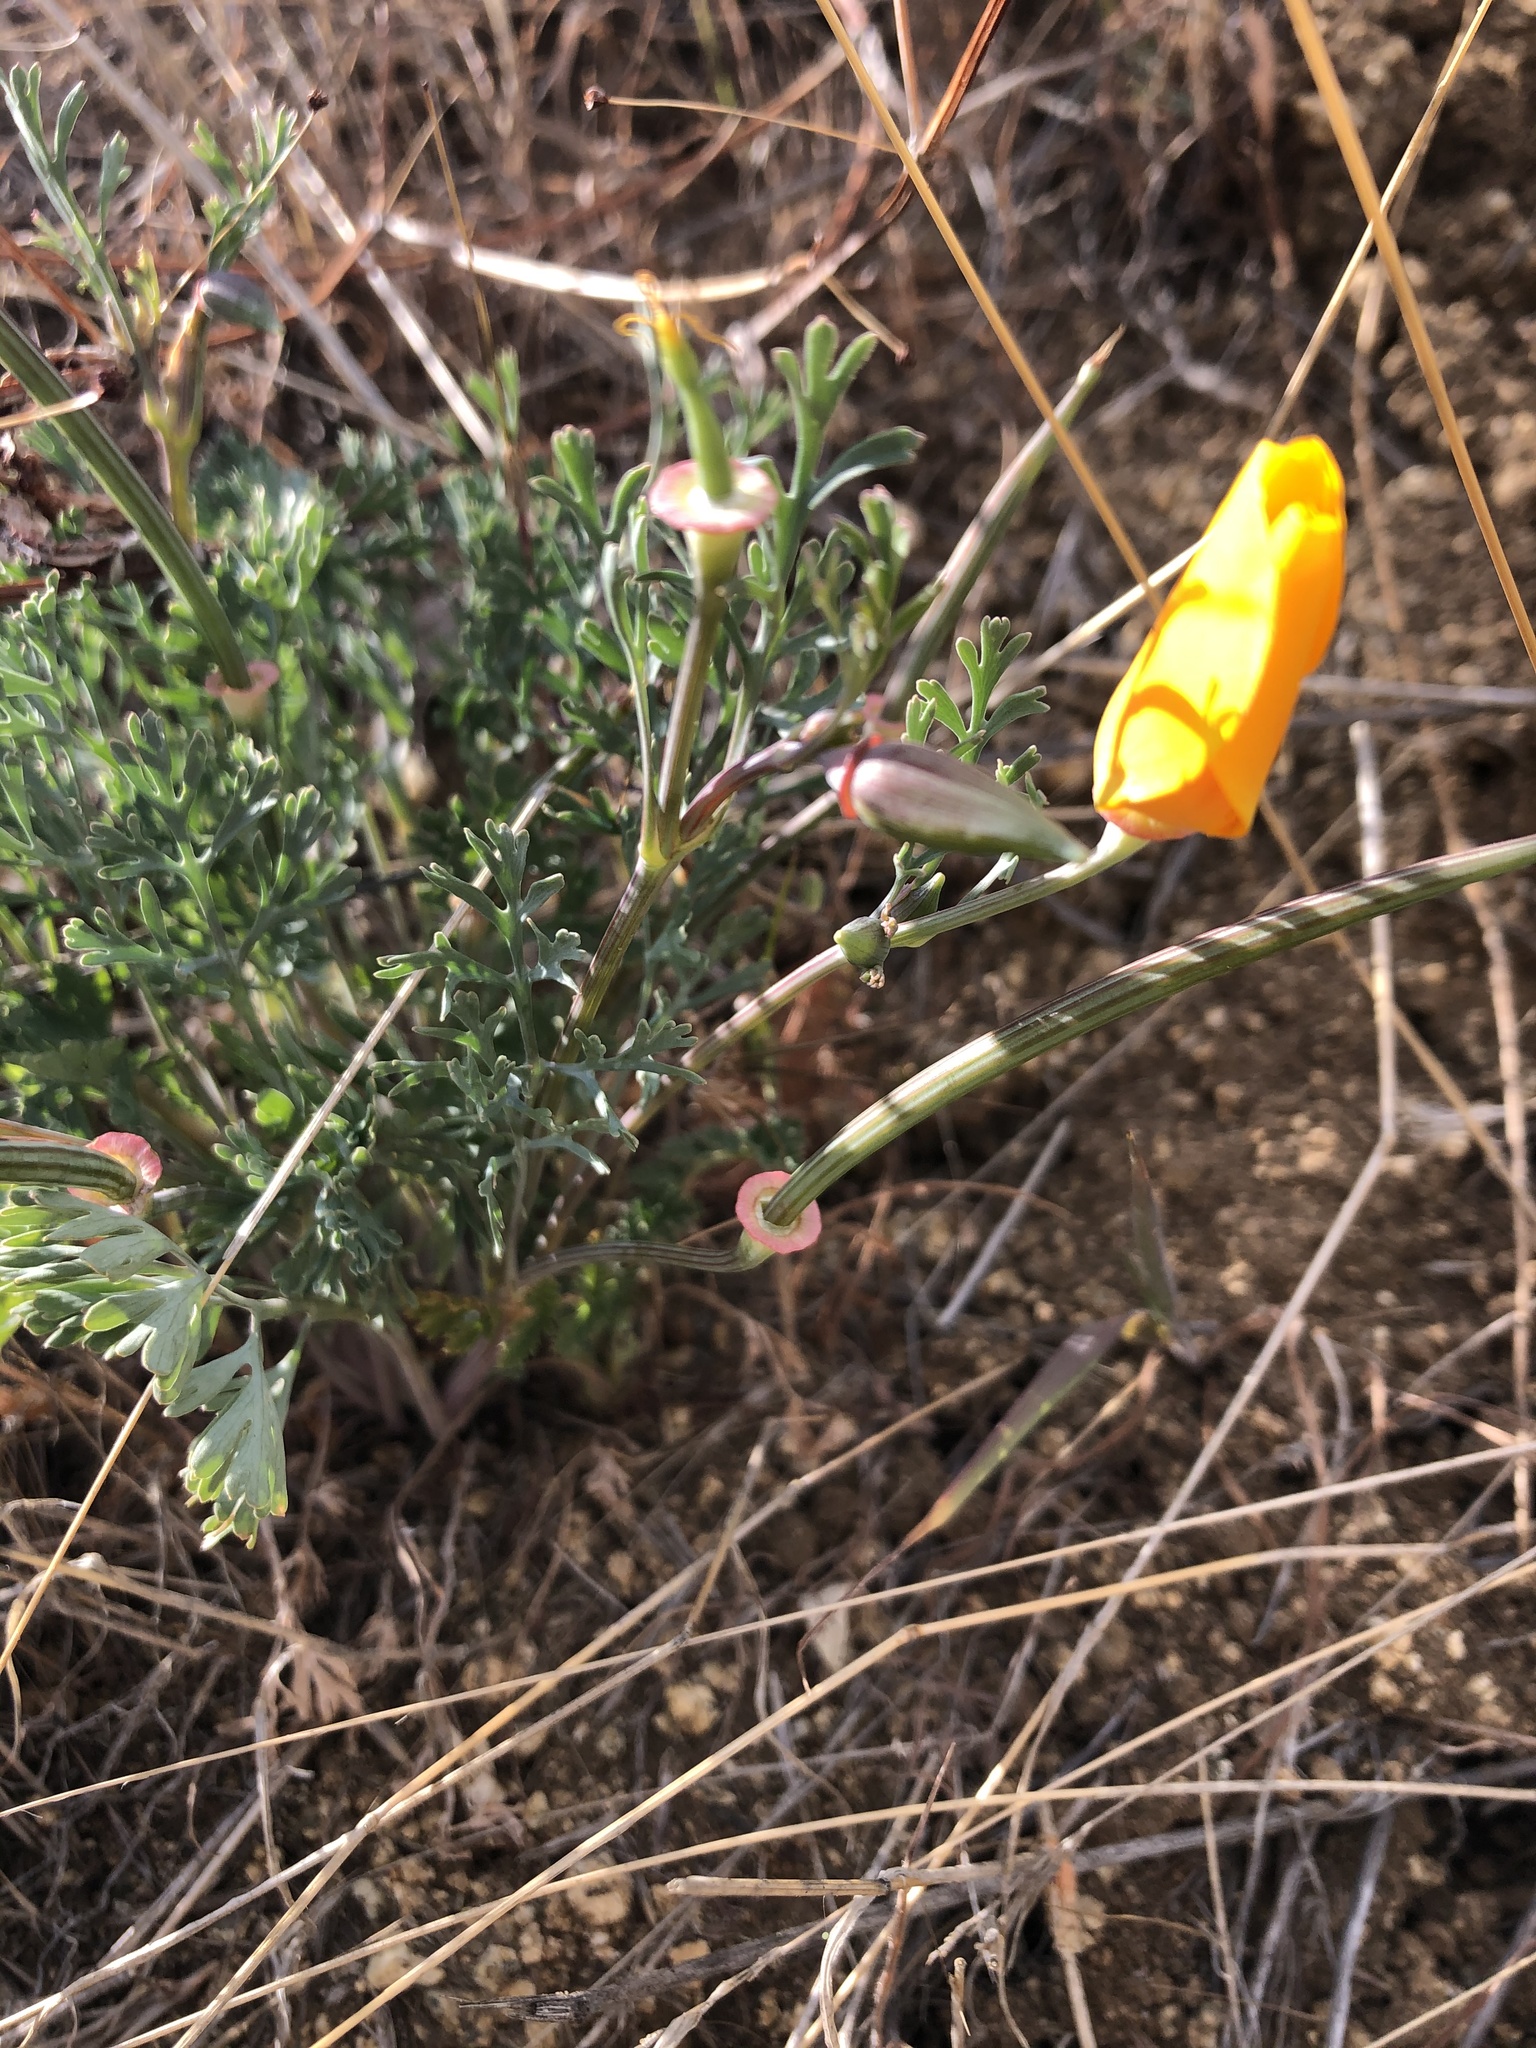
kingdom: Plantae
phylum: Tracheophyta
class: Magnoliopsida
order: Ranunculales
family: Papaveraceae
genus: Eschscholzia
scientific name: Eschscholzia californica
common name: California poppy
